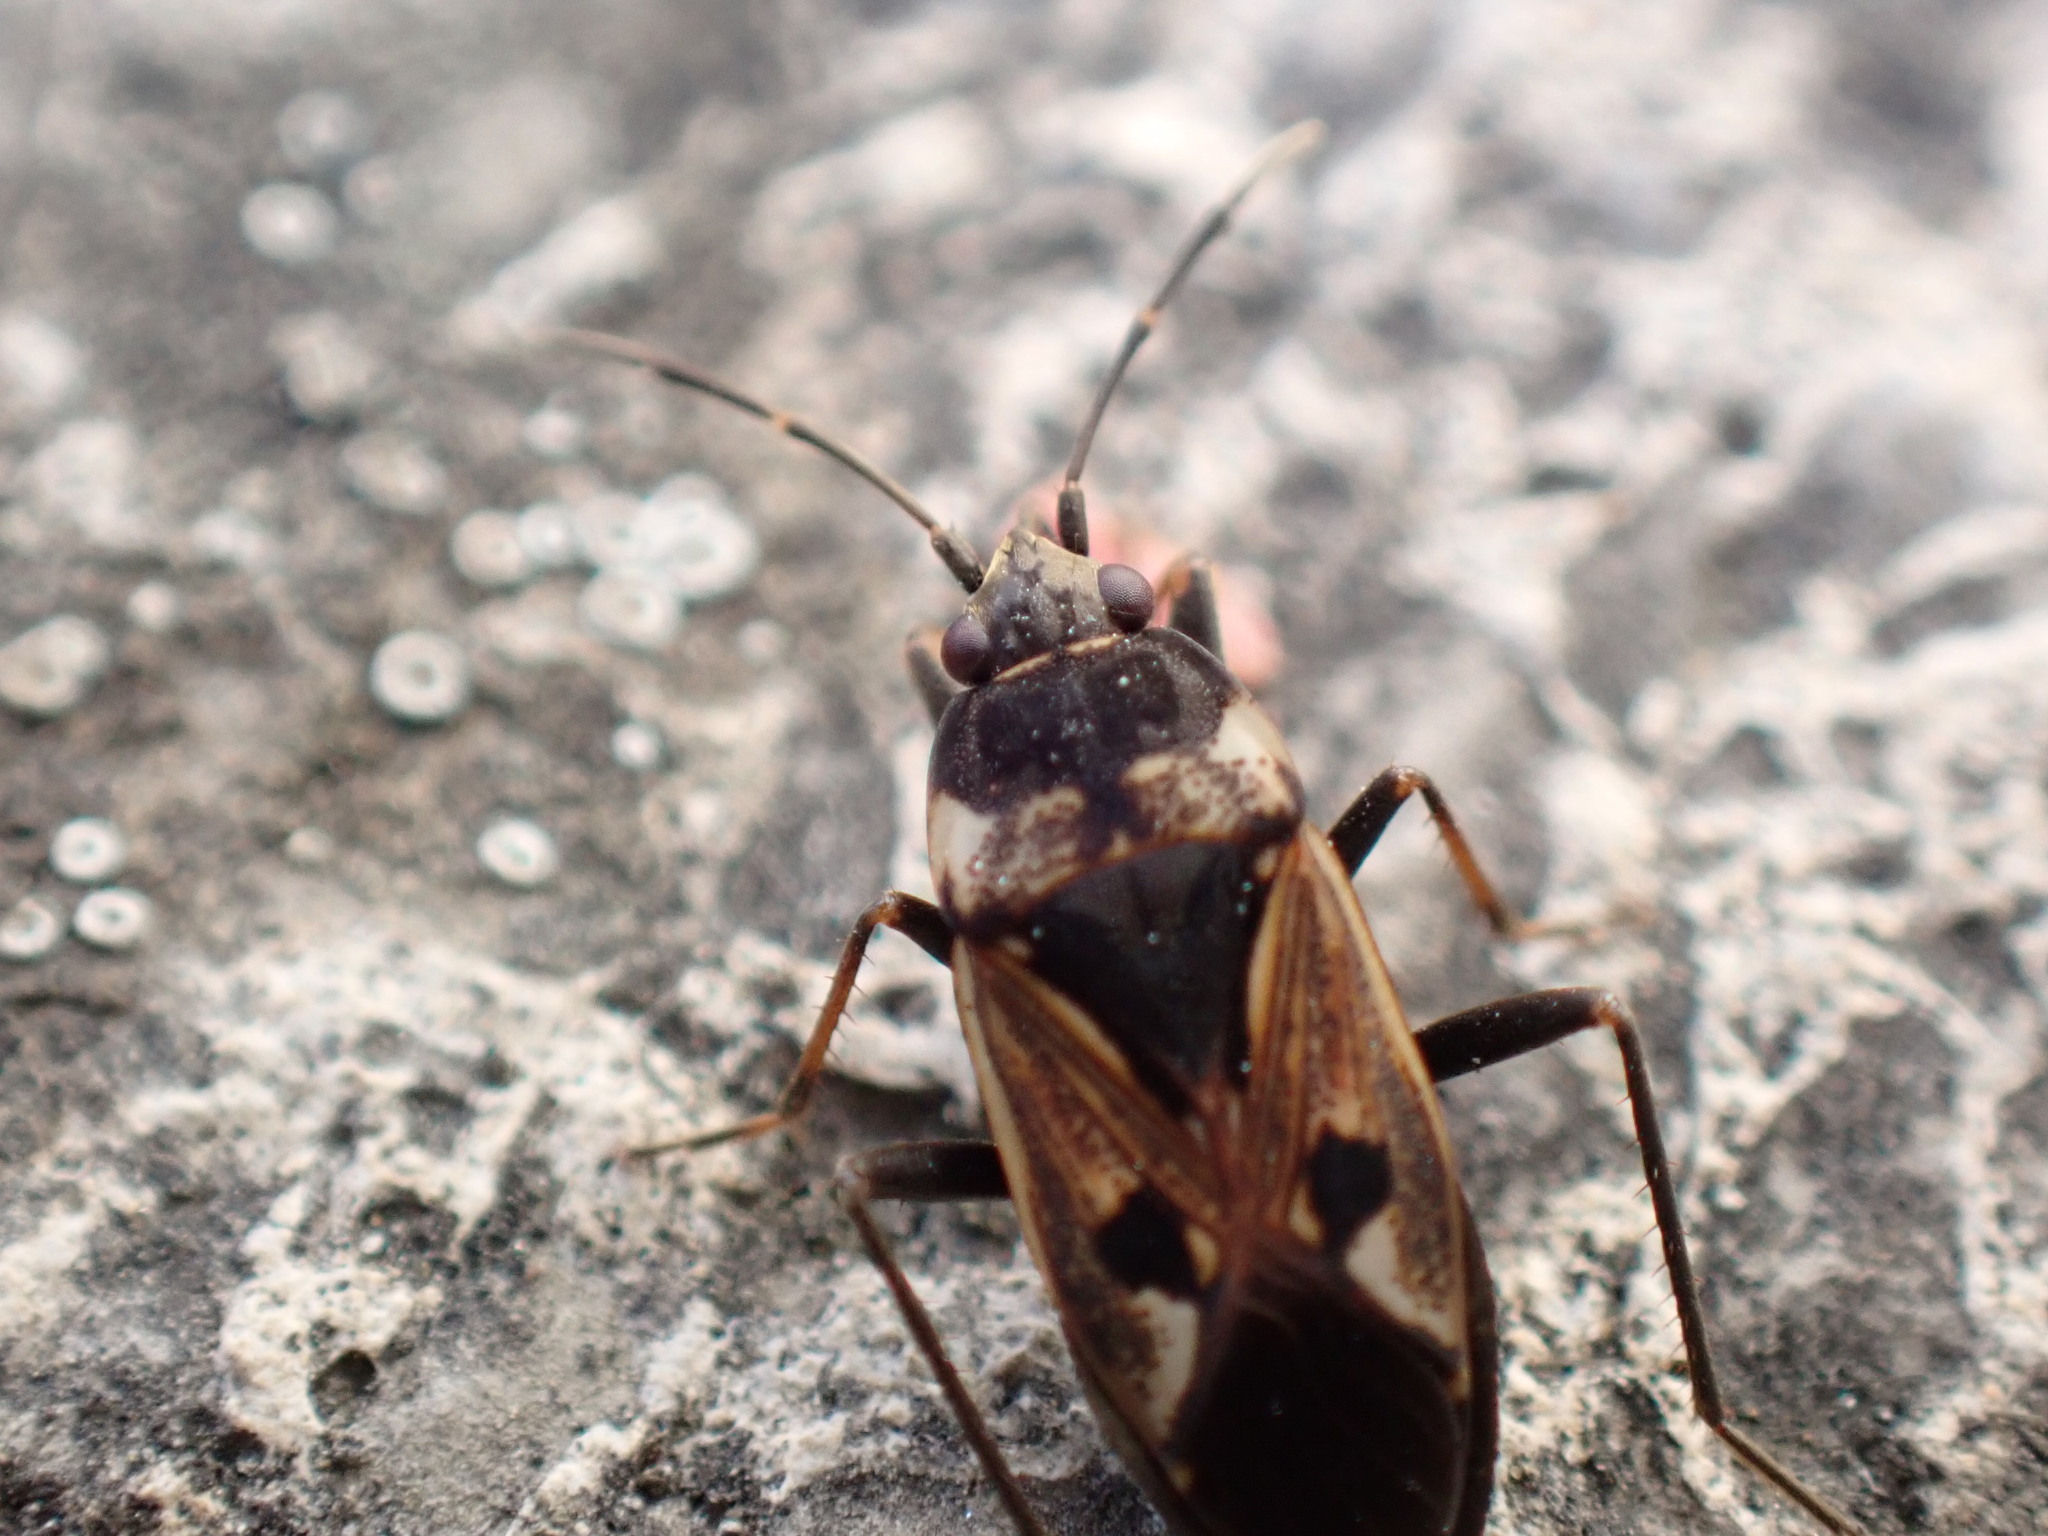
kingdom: Animalia
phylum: Arthropoda
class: Insecta
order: Hemiptera
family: Rhyparochromidae
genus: Rhyparochromus
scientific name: Rhyparochromus vulgaris
